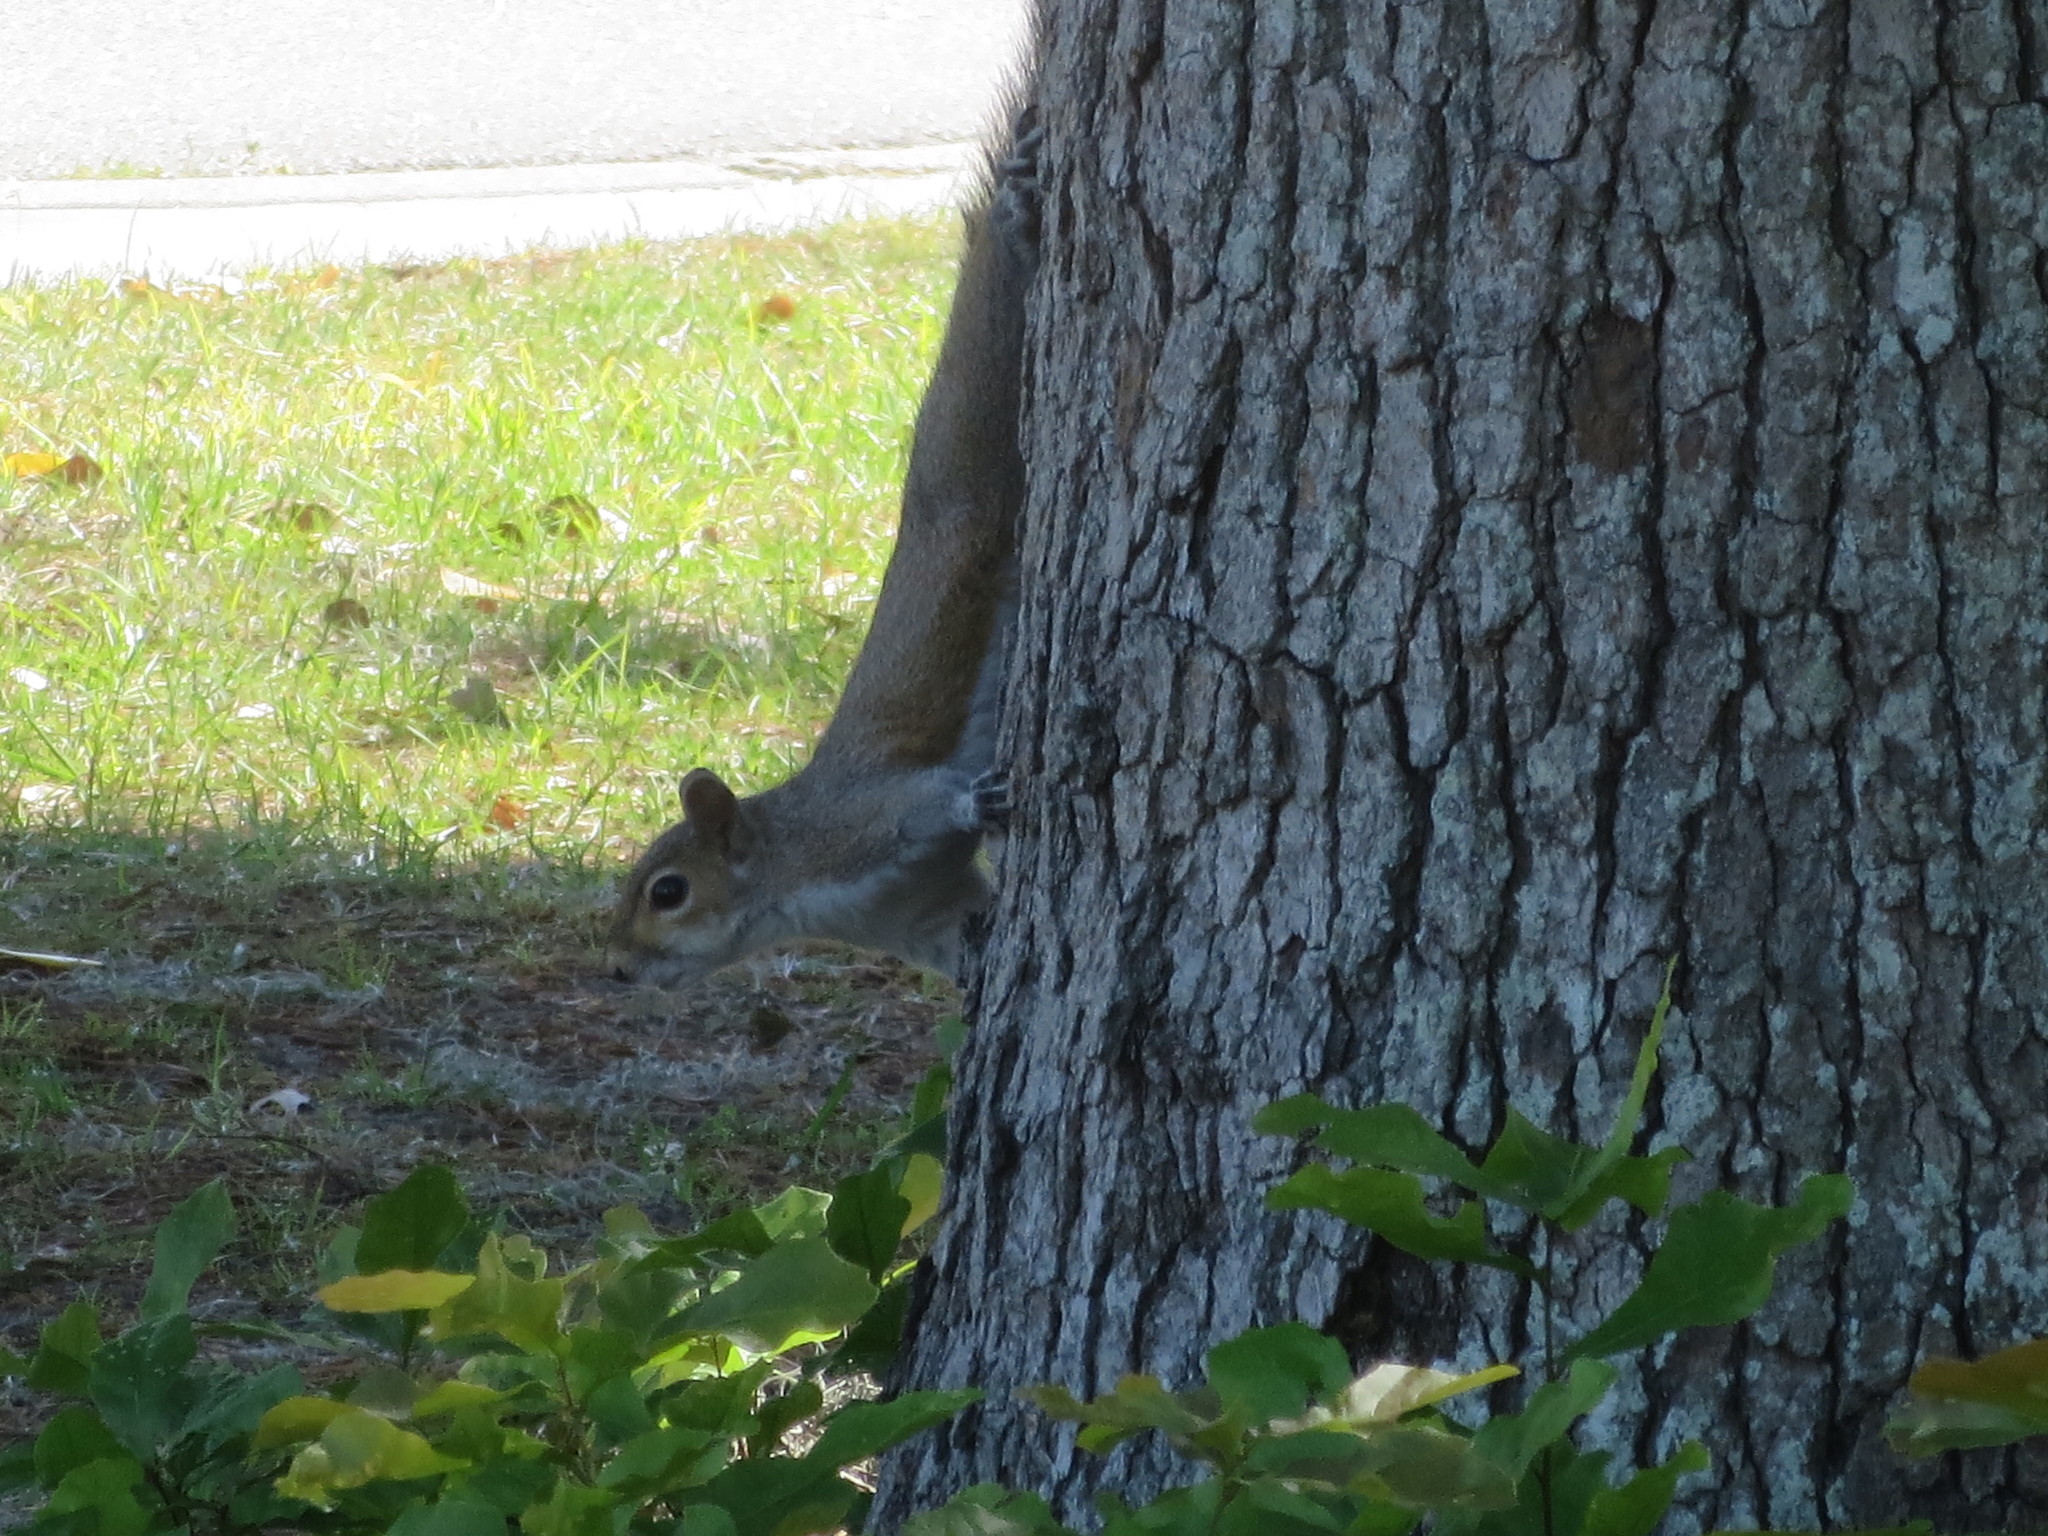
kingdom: Animalia
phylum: Chordata
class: Mammalia
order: Rodentia
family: Sciuridae
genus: Sciurus
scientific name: Sciurus carolinensis
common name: Eastern gray squirrel
